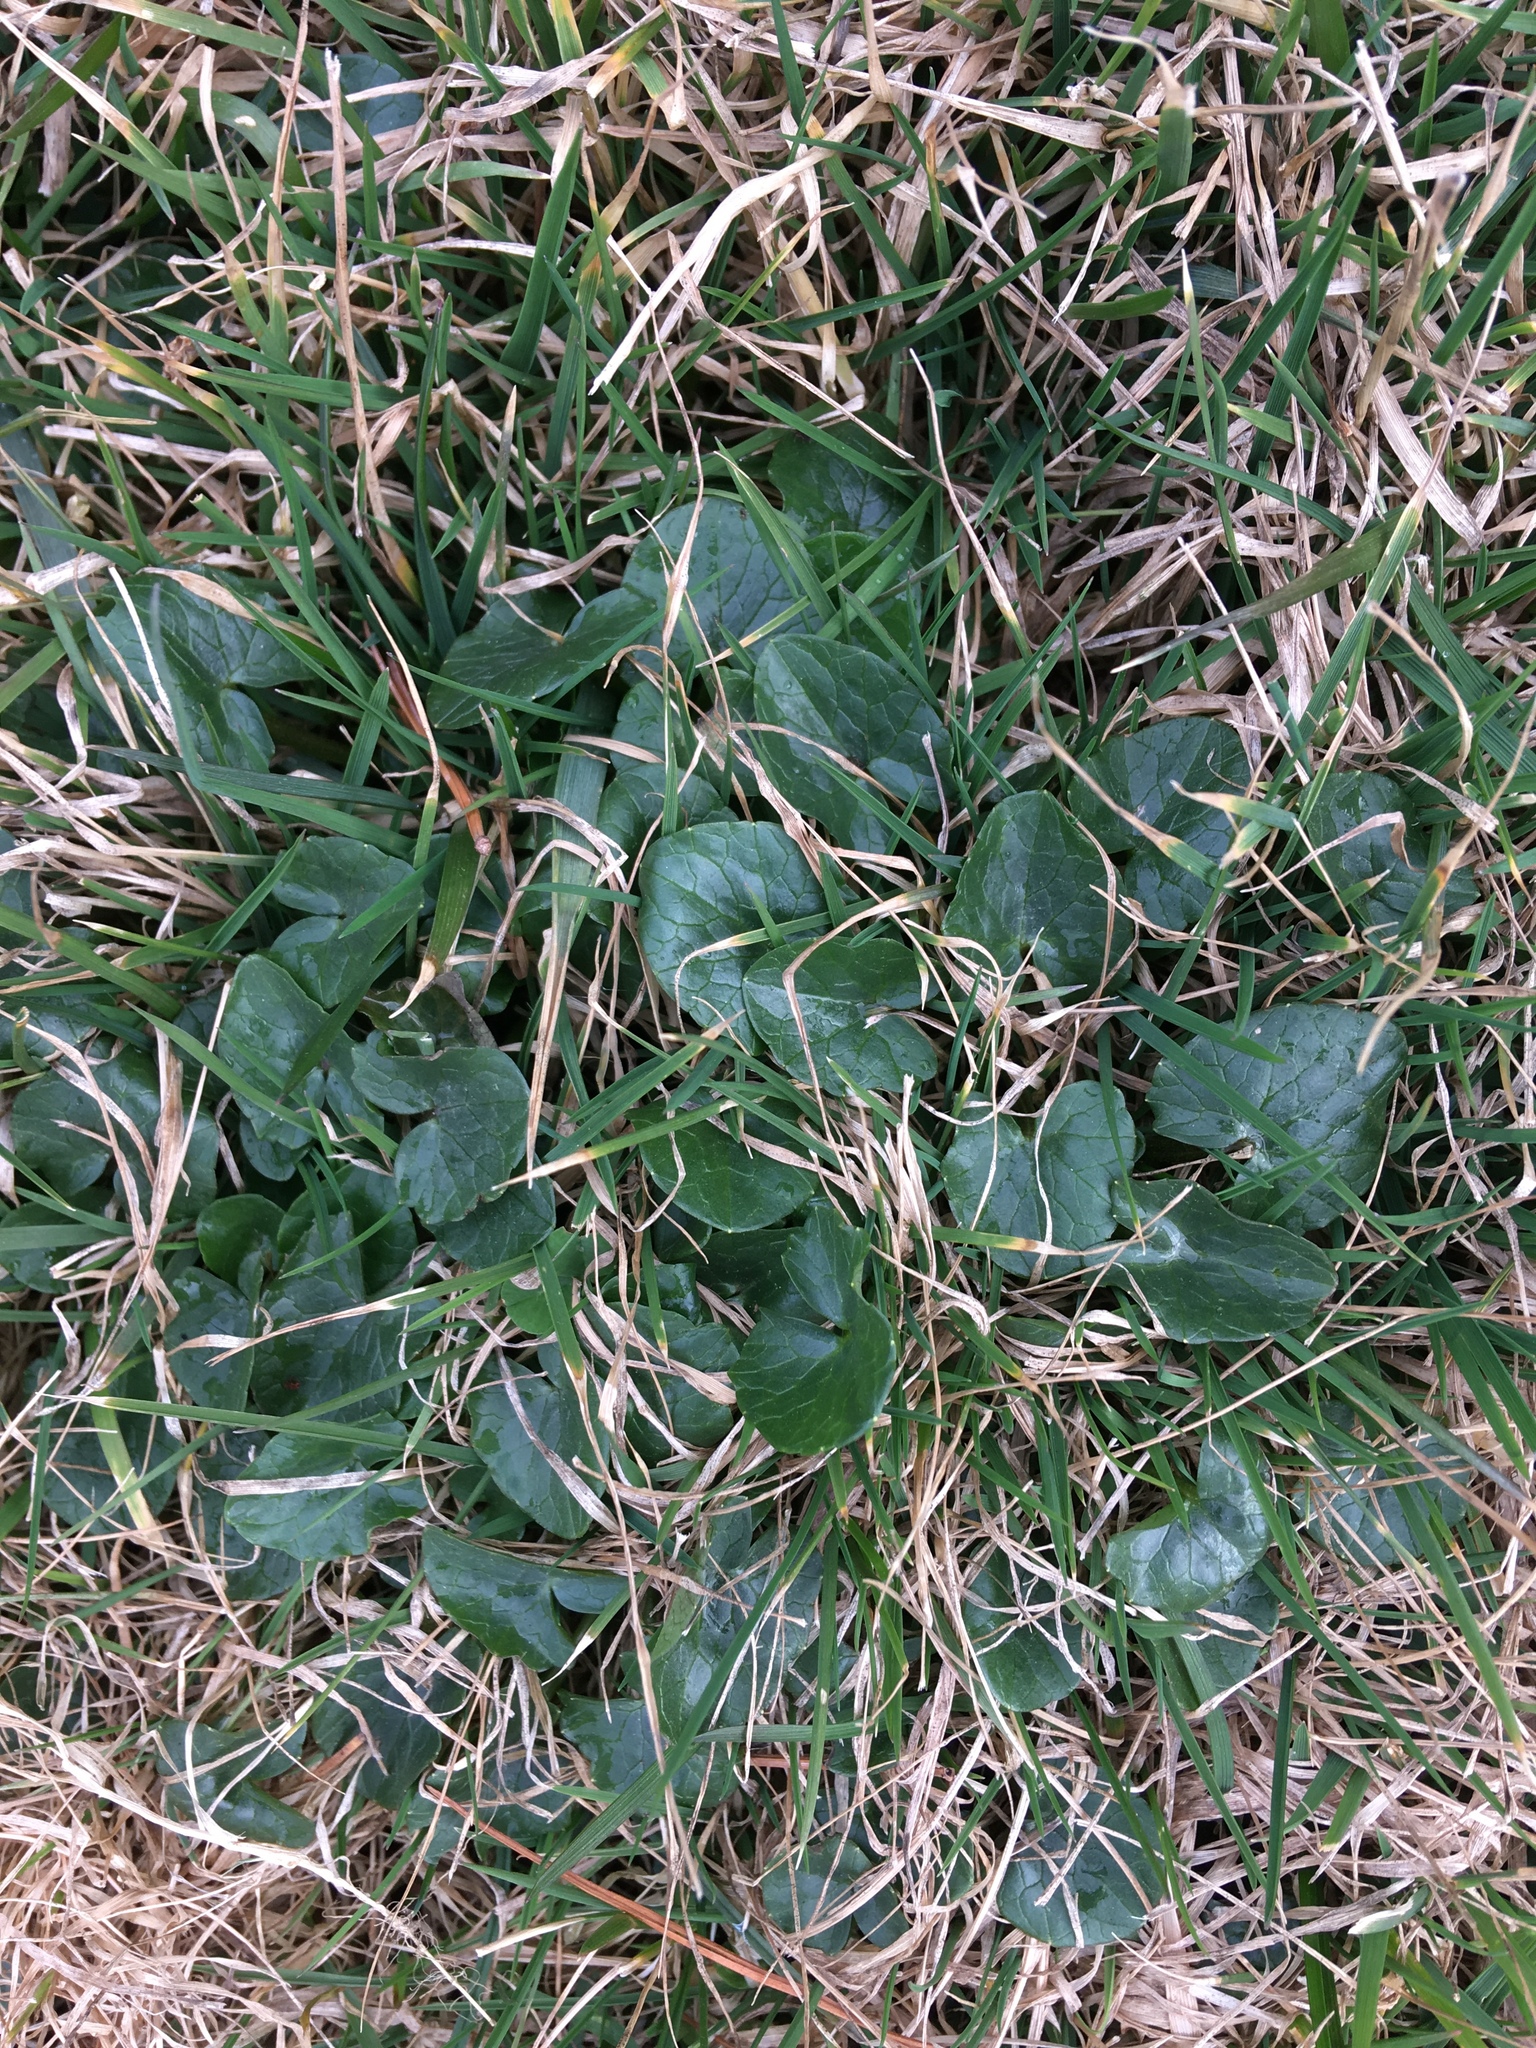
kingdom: Plantae
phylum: Tracheophyta
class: Magnoliopsida
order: Ranunculales
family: Ranunculaceae
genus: Ficaria
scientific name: Ficaria verna
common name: Lesser celandine
